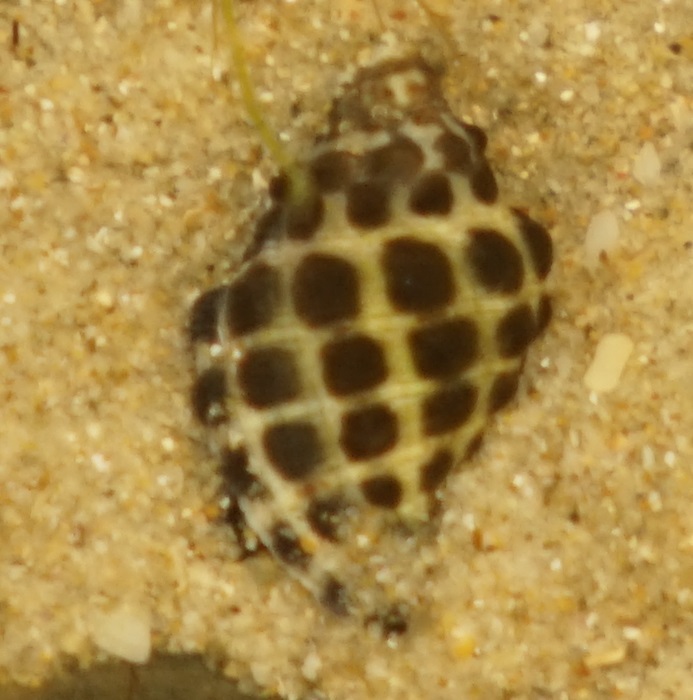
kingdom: Animalia
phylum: Mollusca
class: Gastropoda
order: Neogastropoda
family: Muricidae
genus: Tenguella
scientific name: Tenguella marginalba
